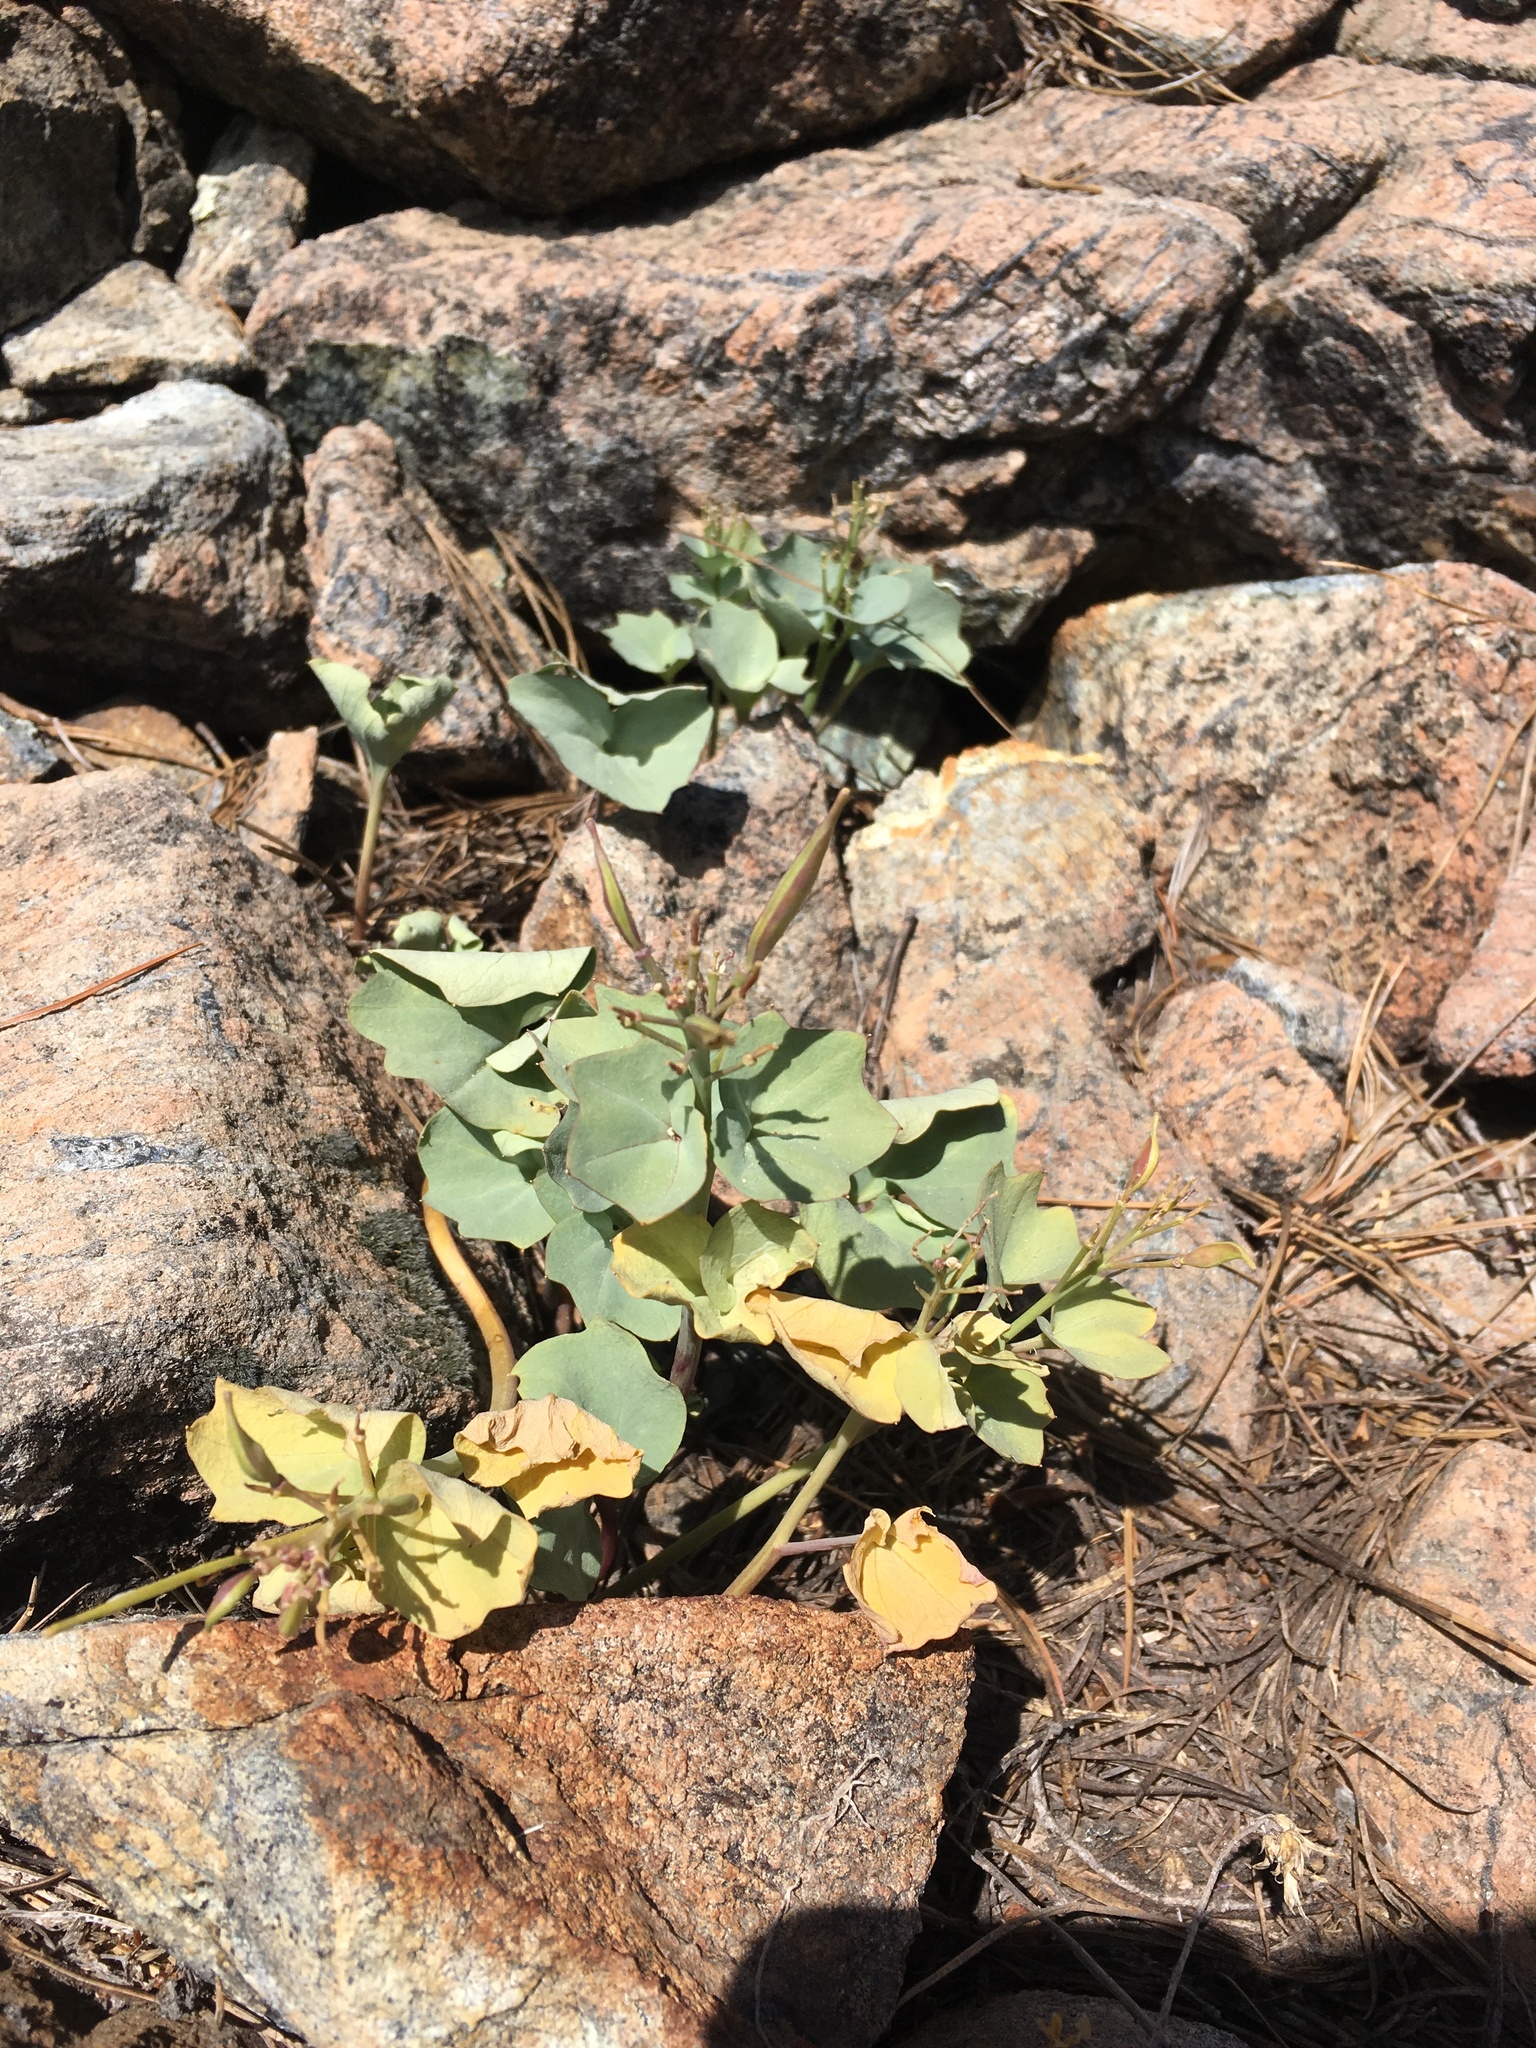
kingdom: Plantae
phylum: Tracheophyta
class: Magnoliopsida
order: Brassicales
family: Brassicaceae
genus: Cardamine
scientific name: Cardamine pachystigma
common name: Rock toothwort
